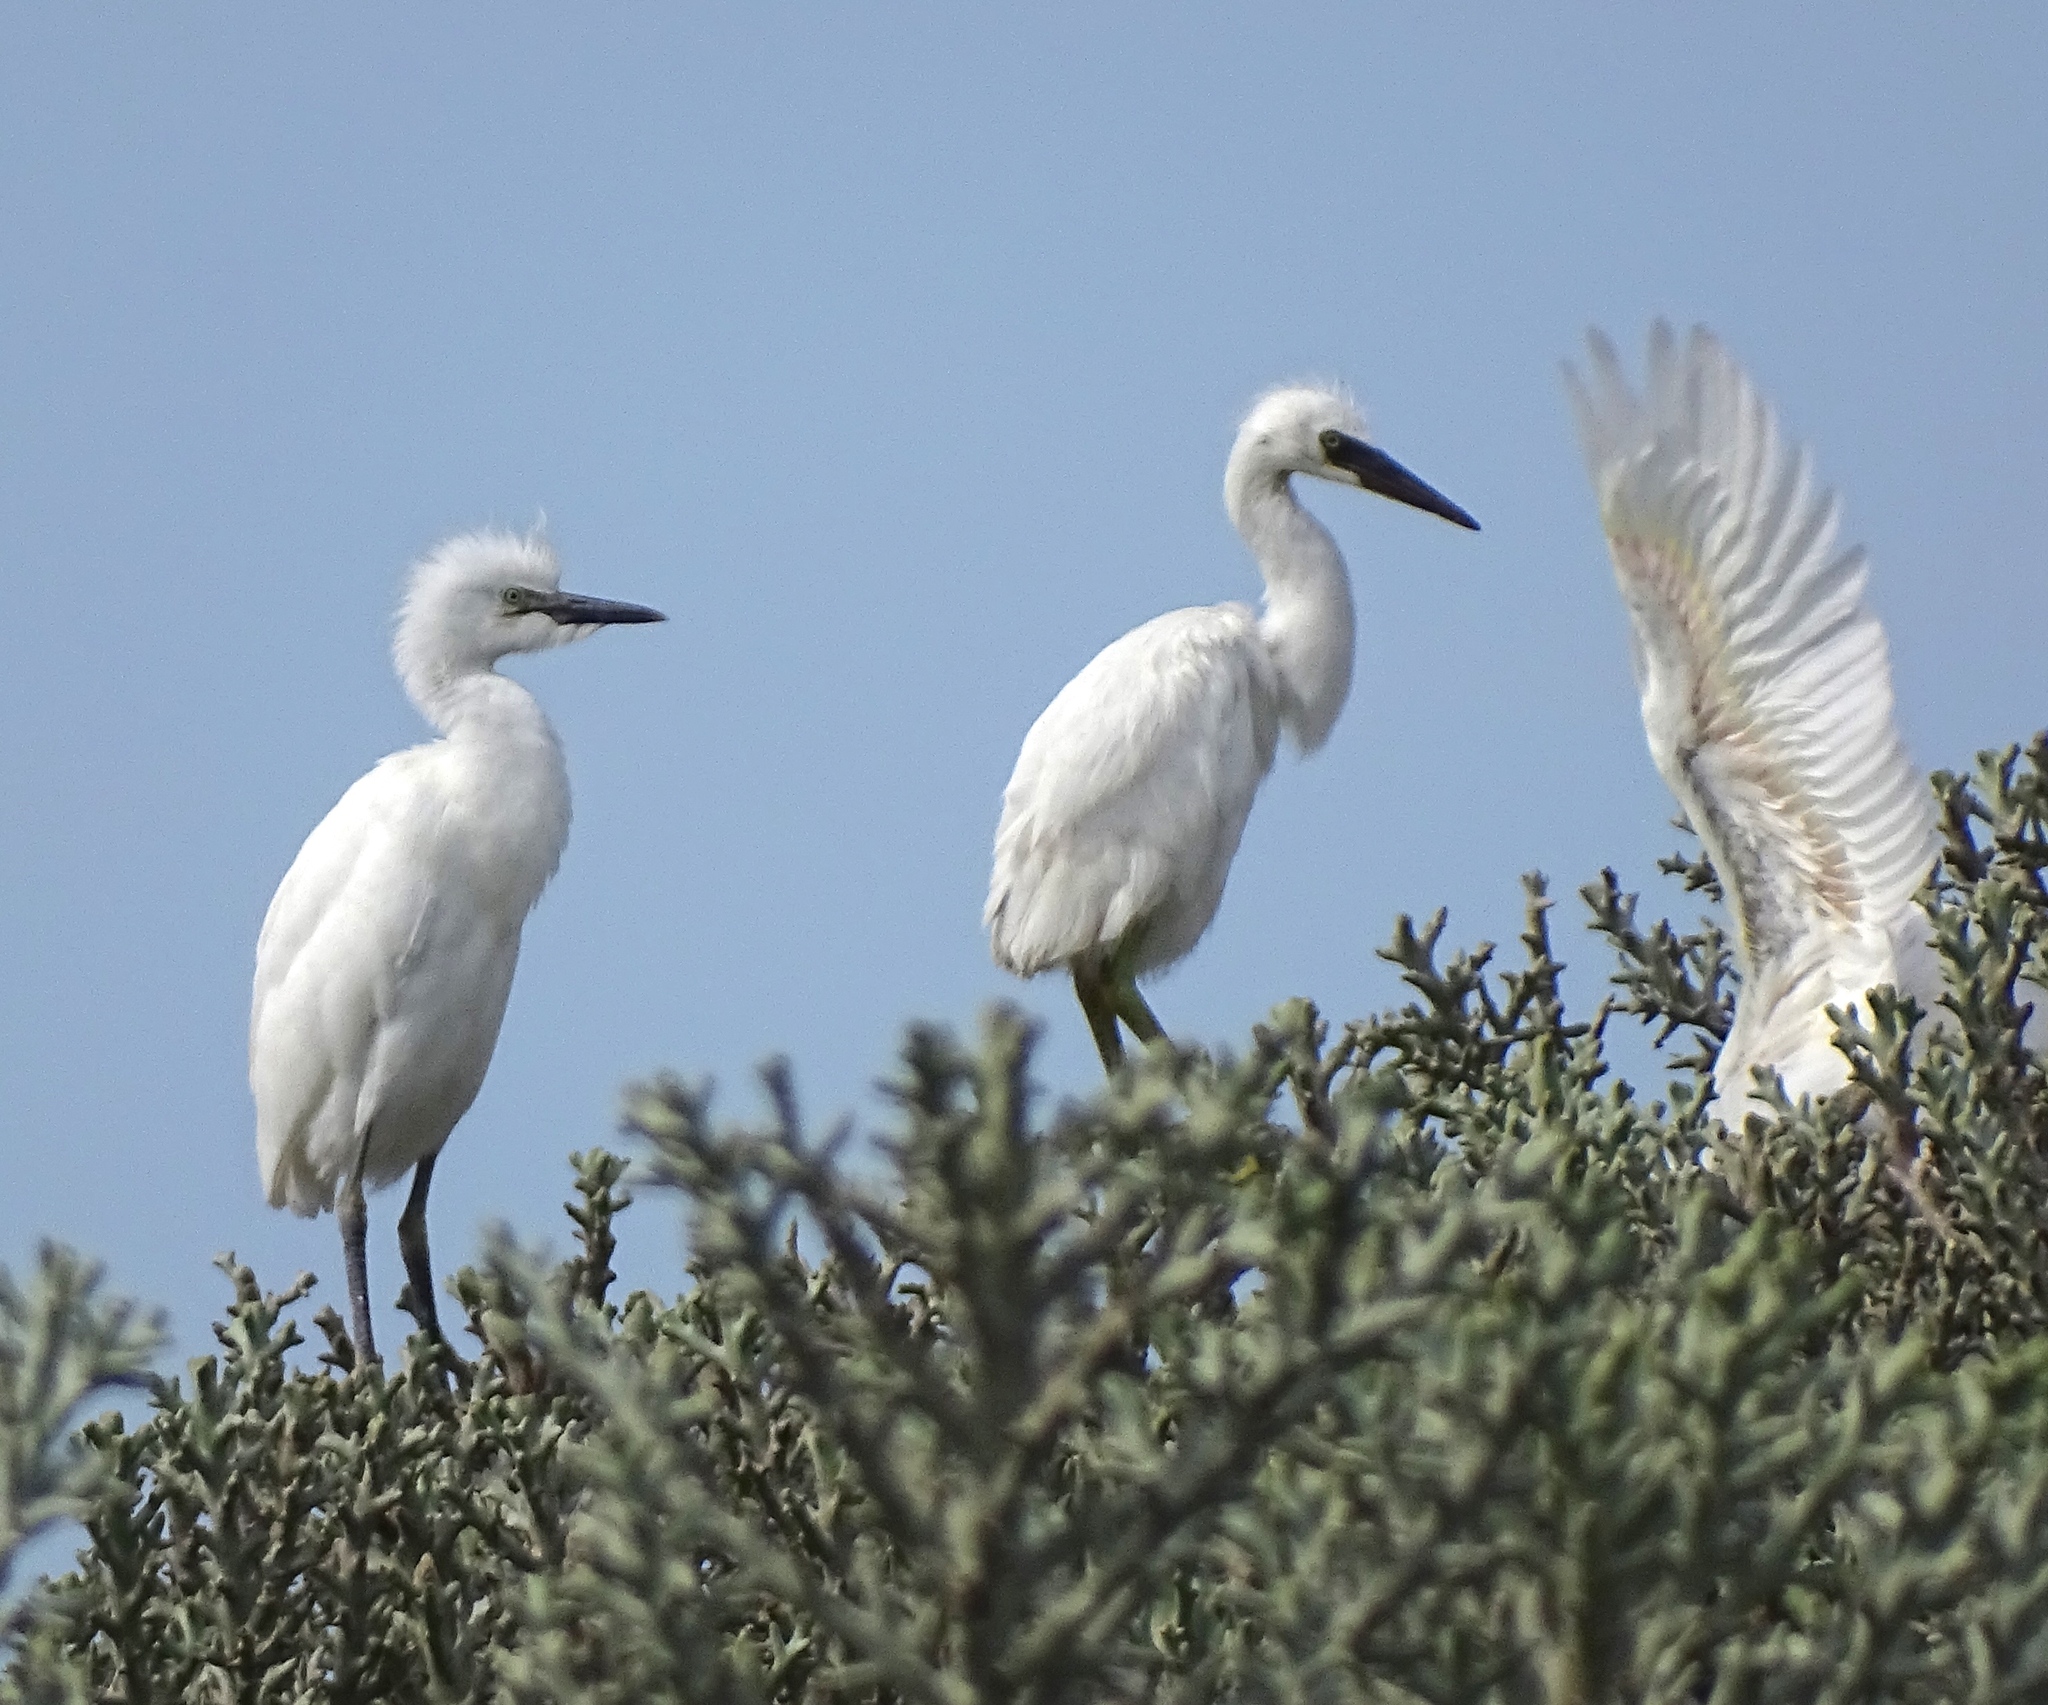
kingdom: Animalia
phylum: Chordata
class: Aves
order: Pelecaniformes
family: Ardeidae
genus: Egretta
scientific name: Egretta garzetta
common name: Little egret
